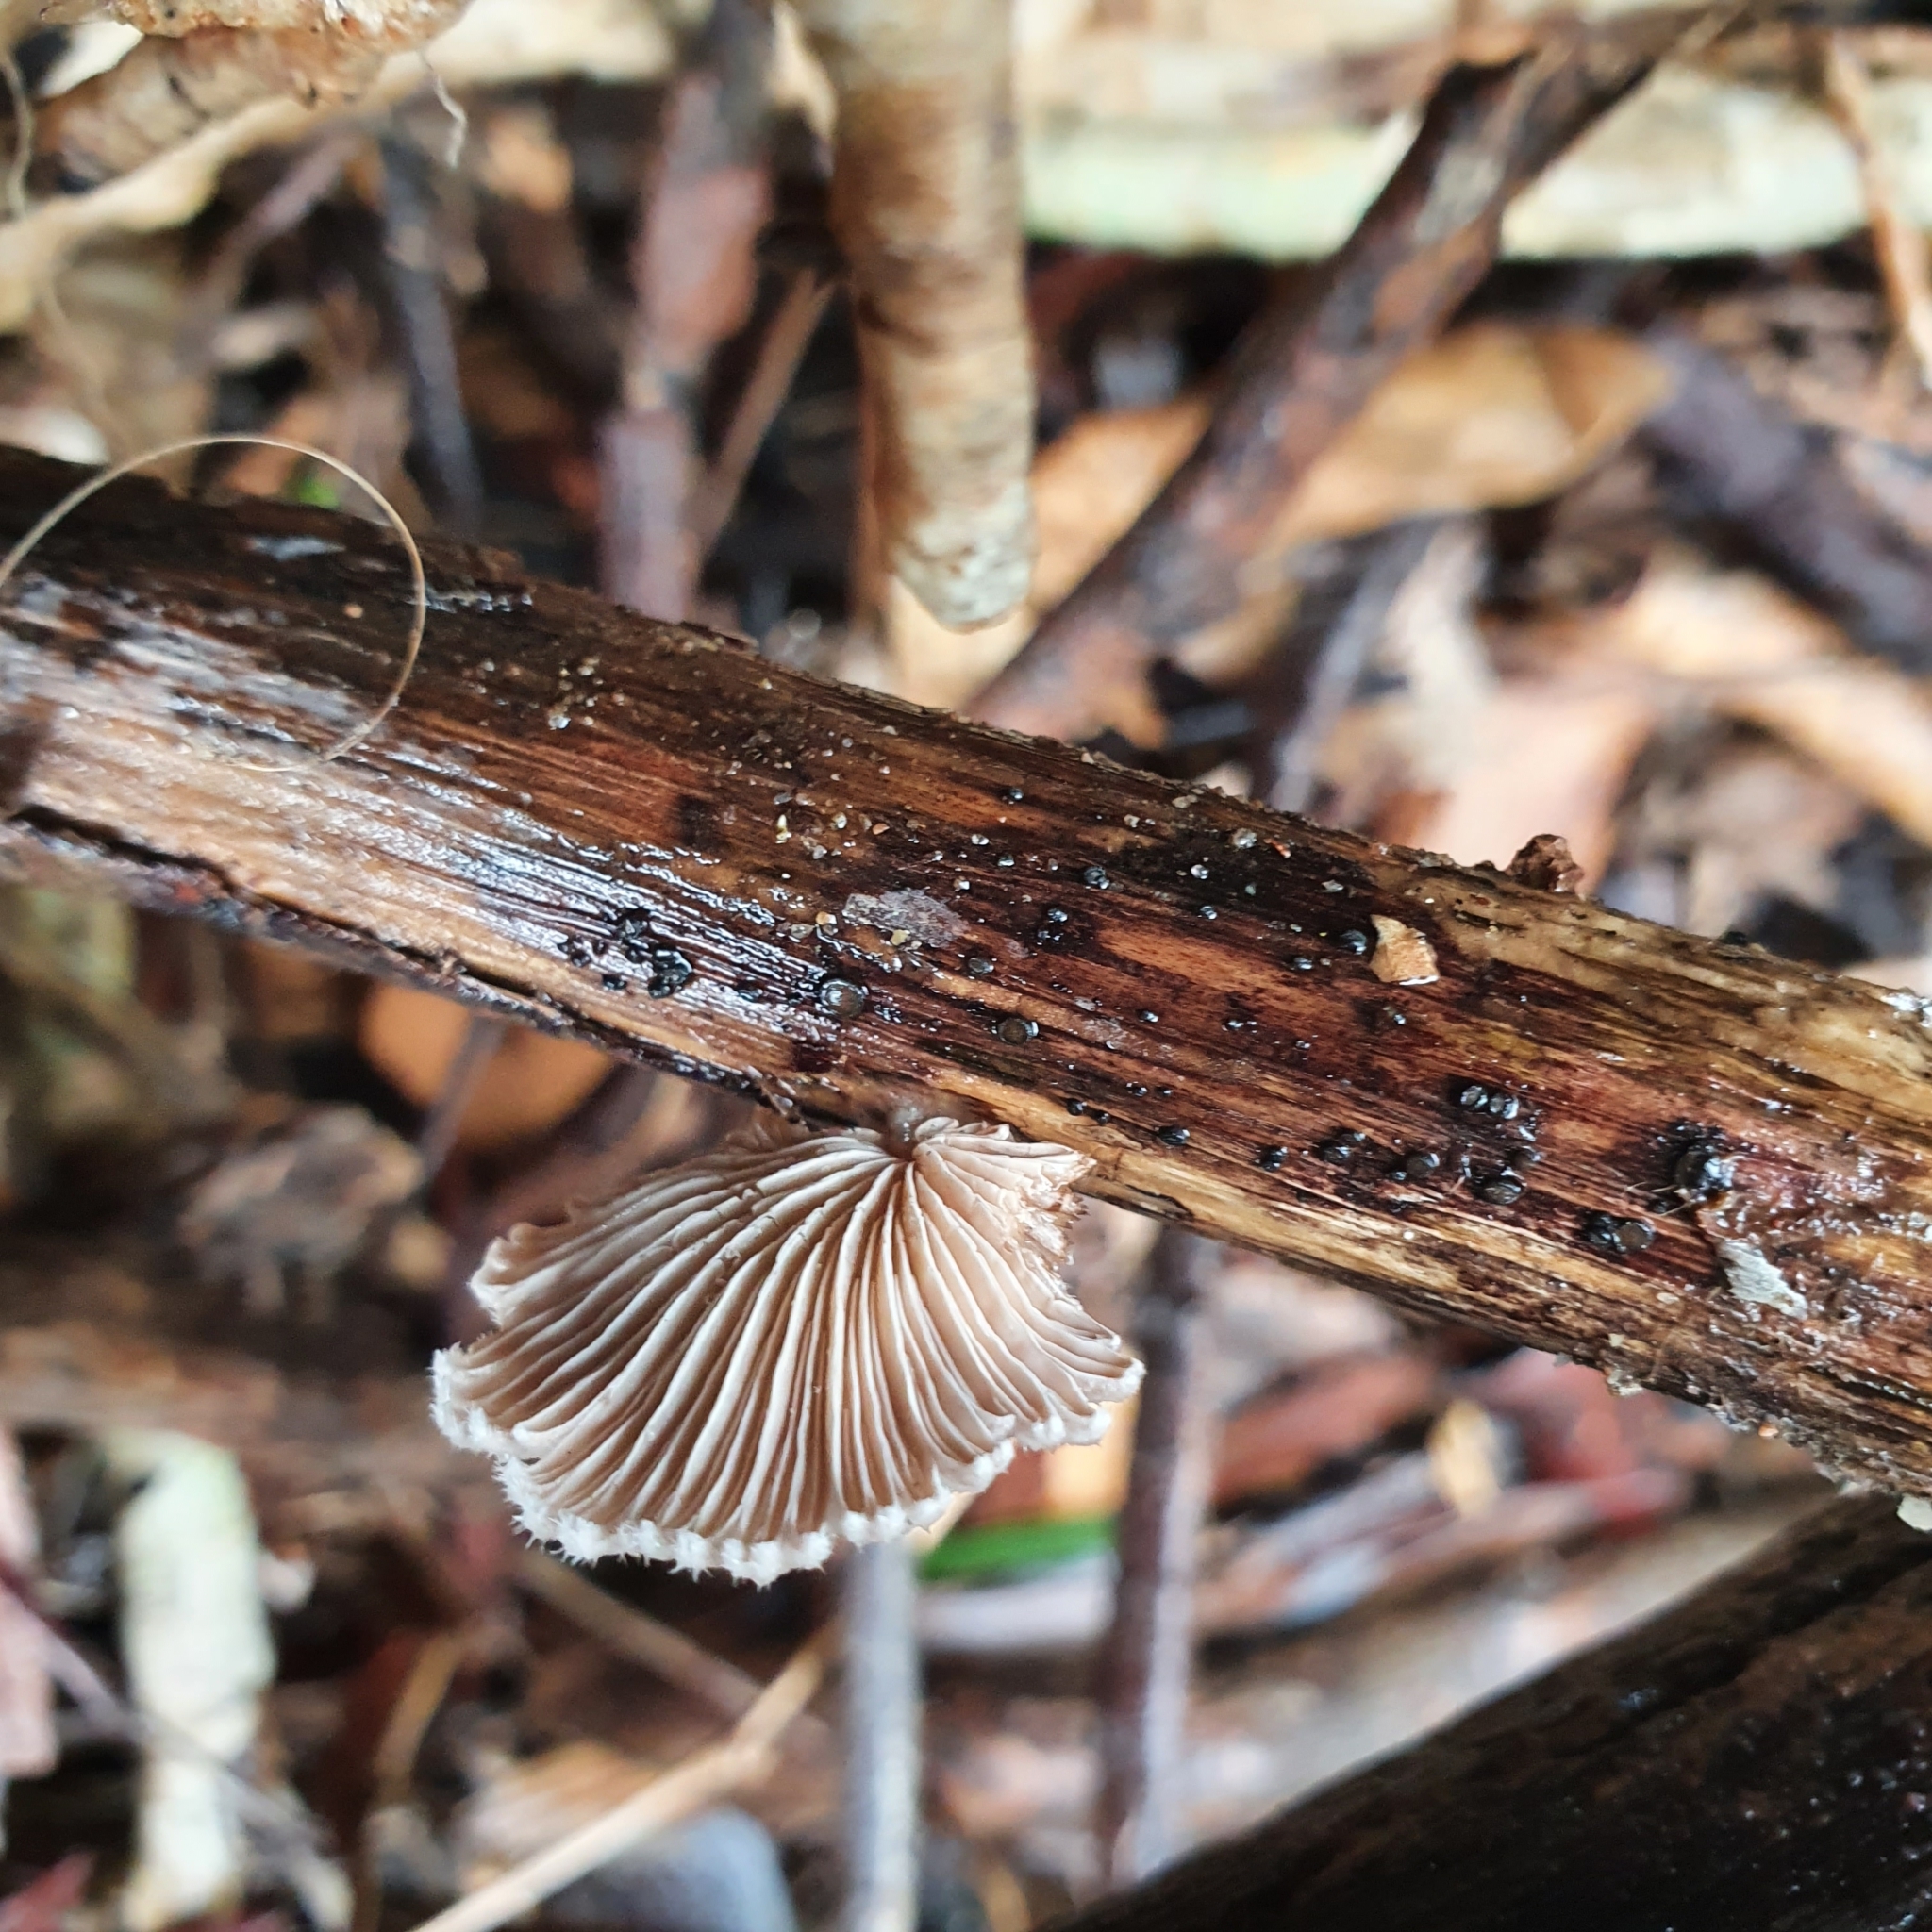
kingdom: Fungi
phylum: Basidiomycota
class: Agaricomycetes
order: Agaricales
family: Schizophyllaceae
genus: Schizophyllum
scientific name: Schizophyllum commune
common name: Common porecrust
